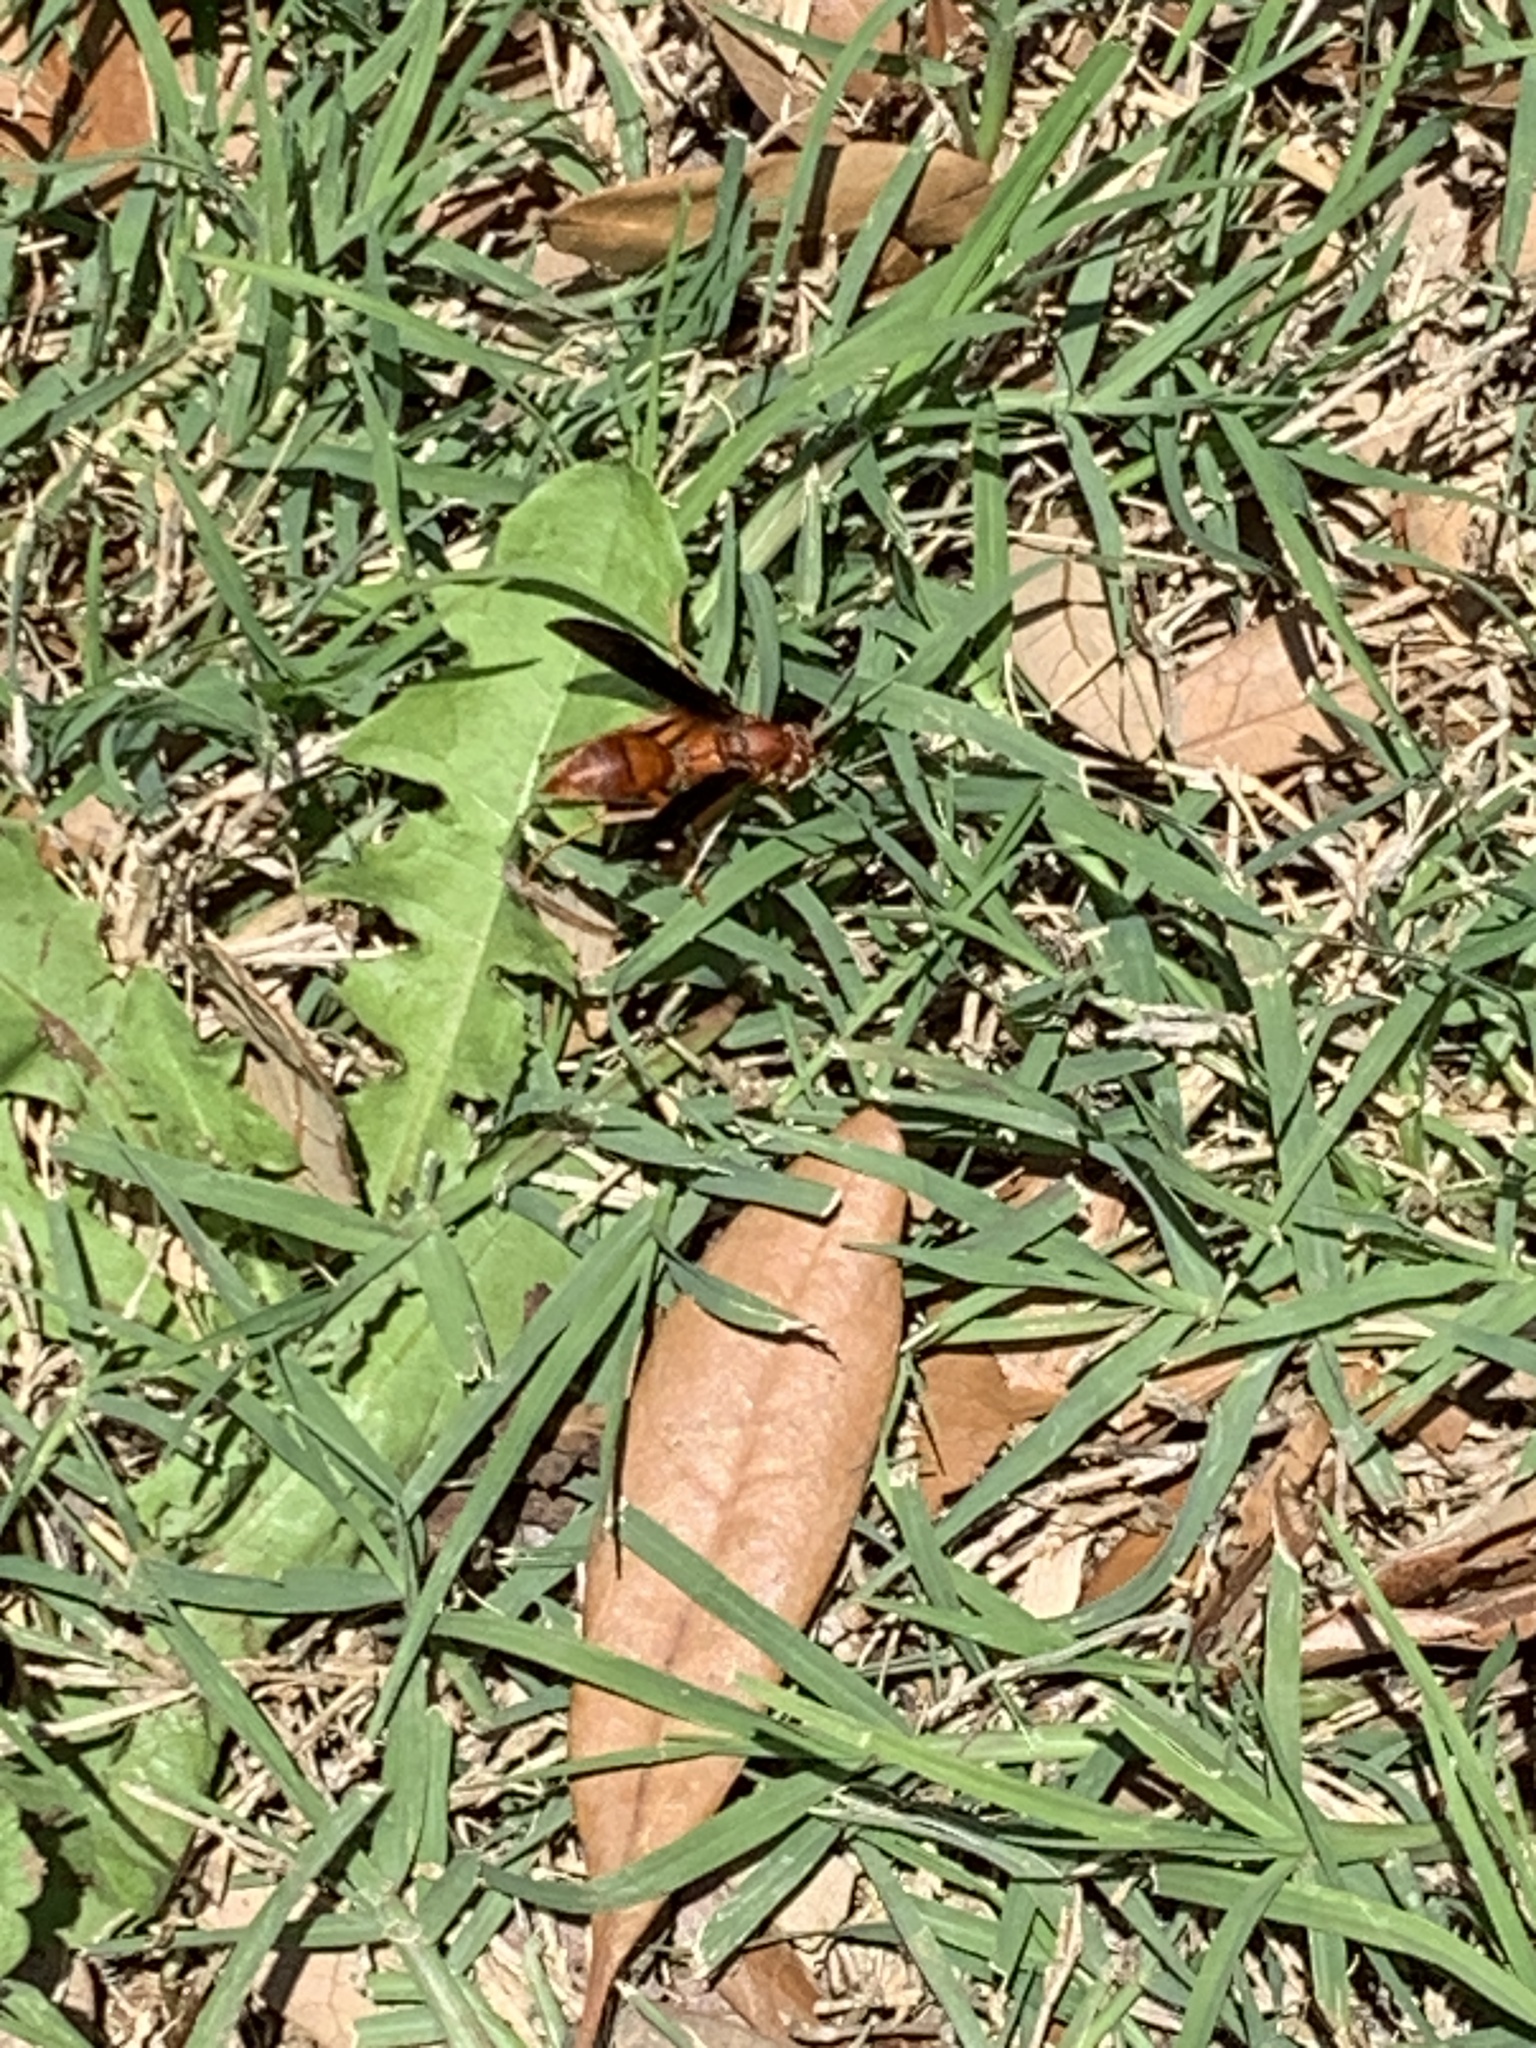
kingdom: Animalia
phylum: Arthropoda
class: Insecta
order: Hymenoptera
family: Eumenidae
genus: Polistes
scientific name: Polistes carolina
